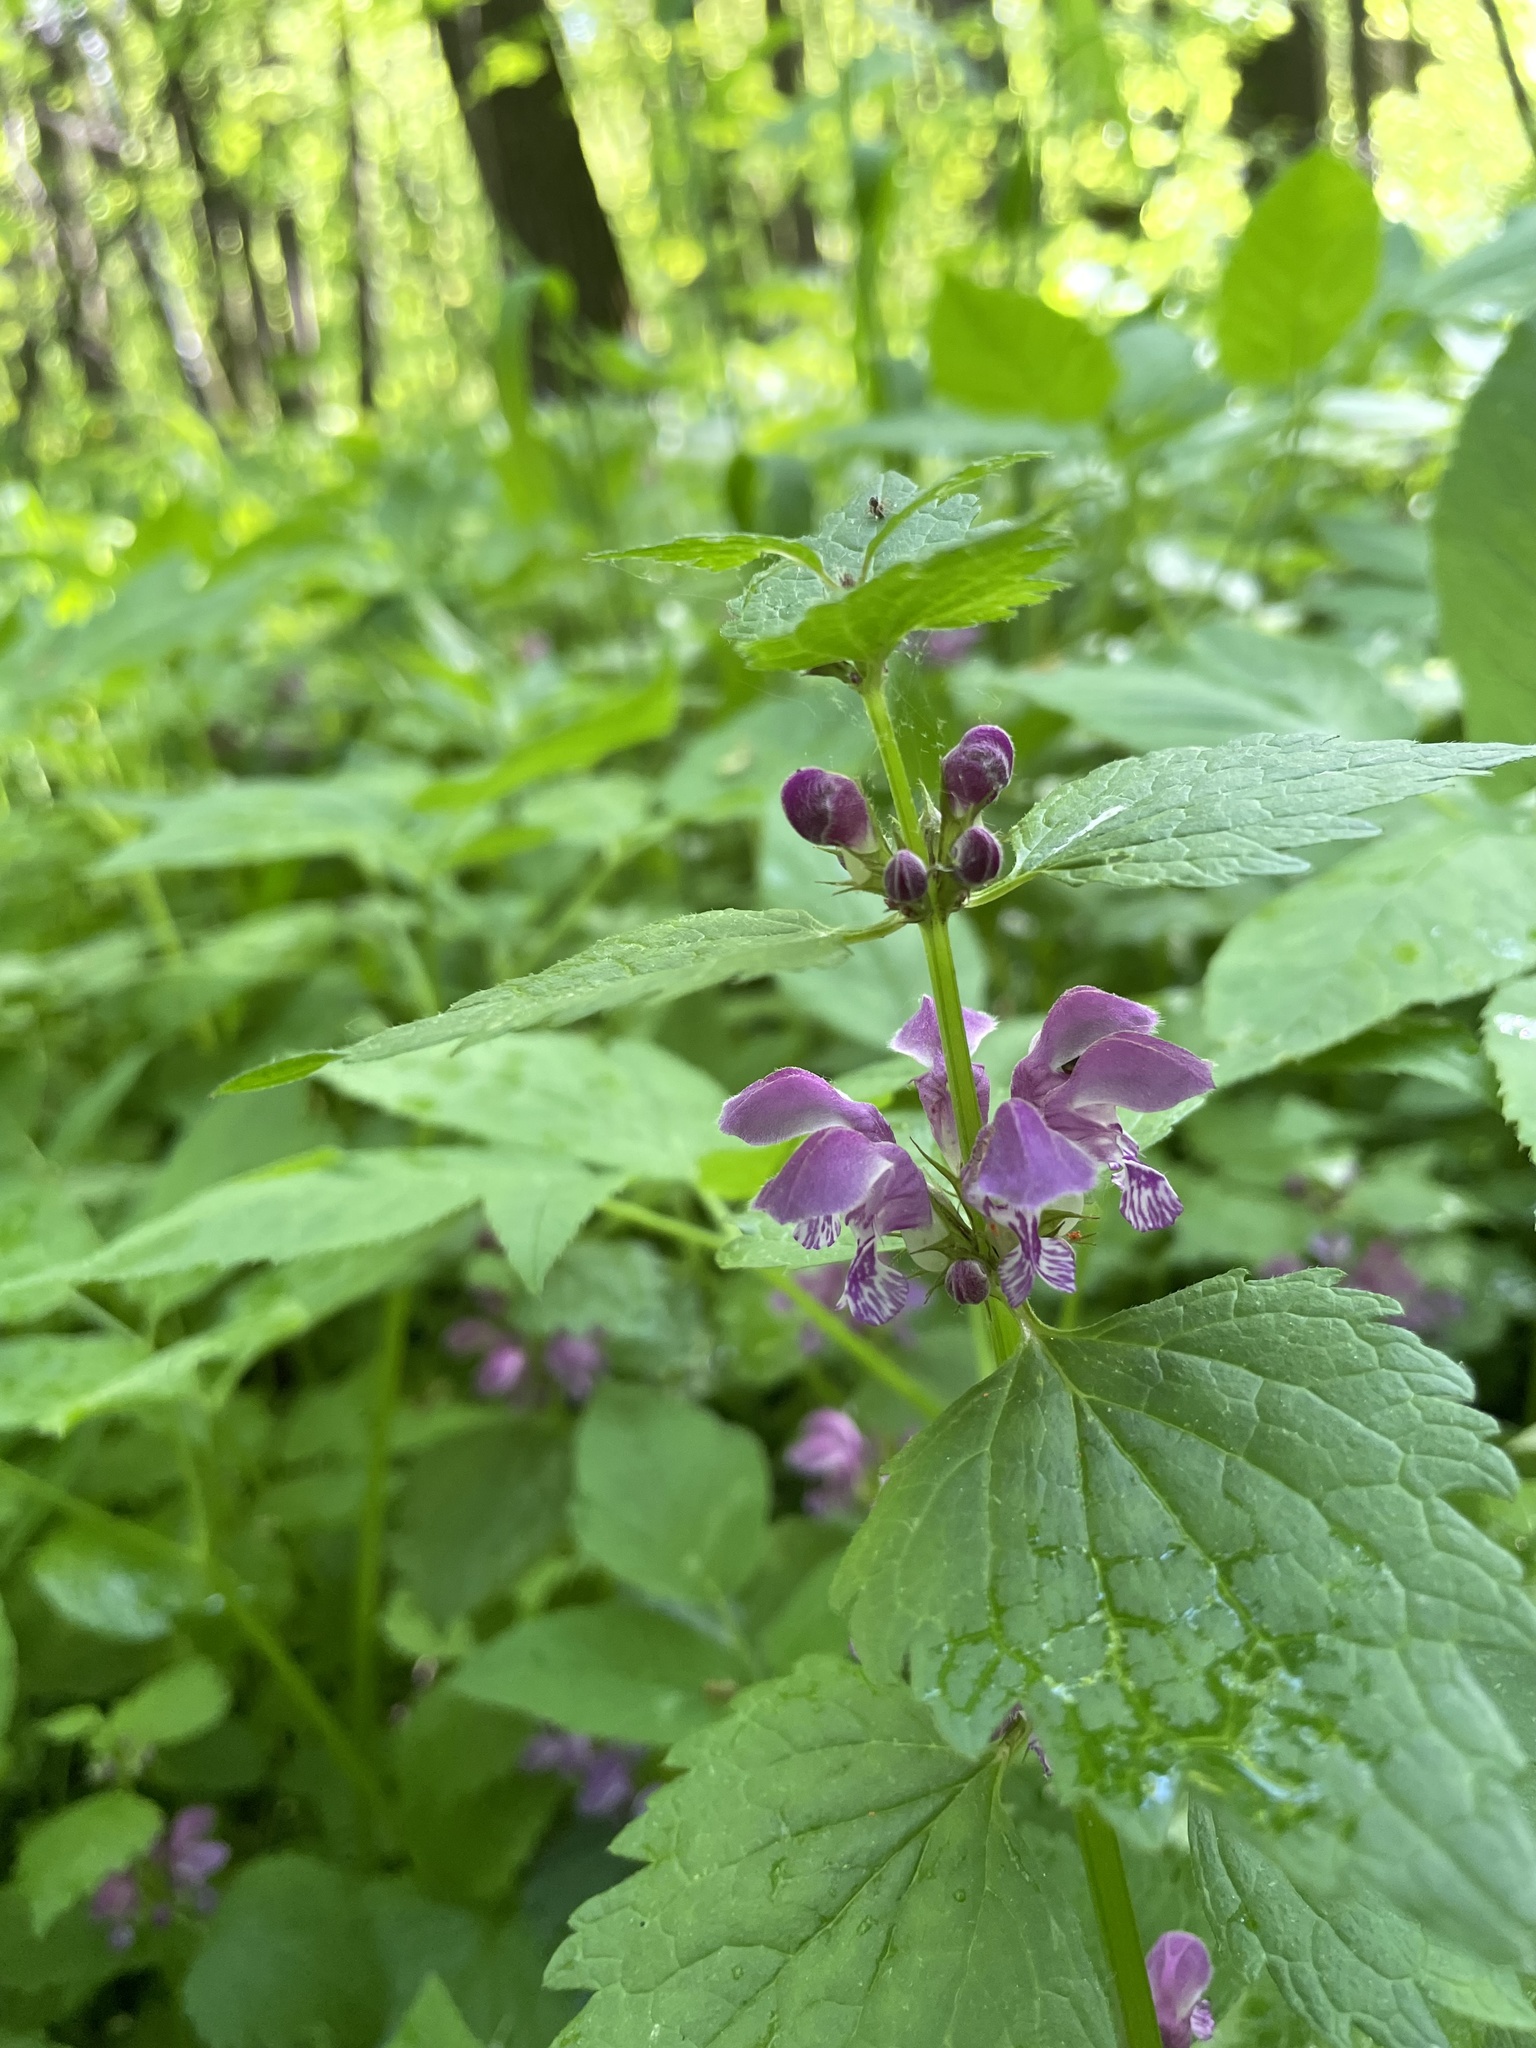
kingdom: Plantae
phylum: Tracheophyta
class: Magnoliopsida
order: Lamiales
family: Lamiaceae
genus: Lamium
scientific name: Lamium maculatum
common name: Spotted dead-nettle
